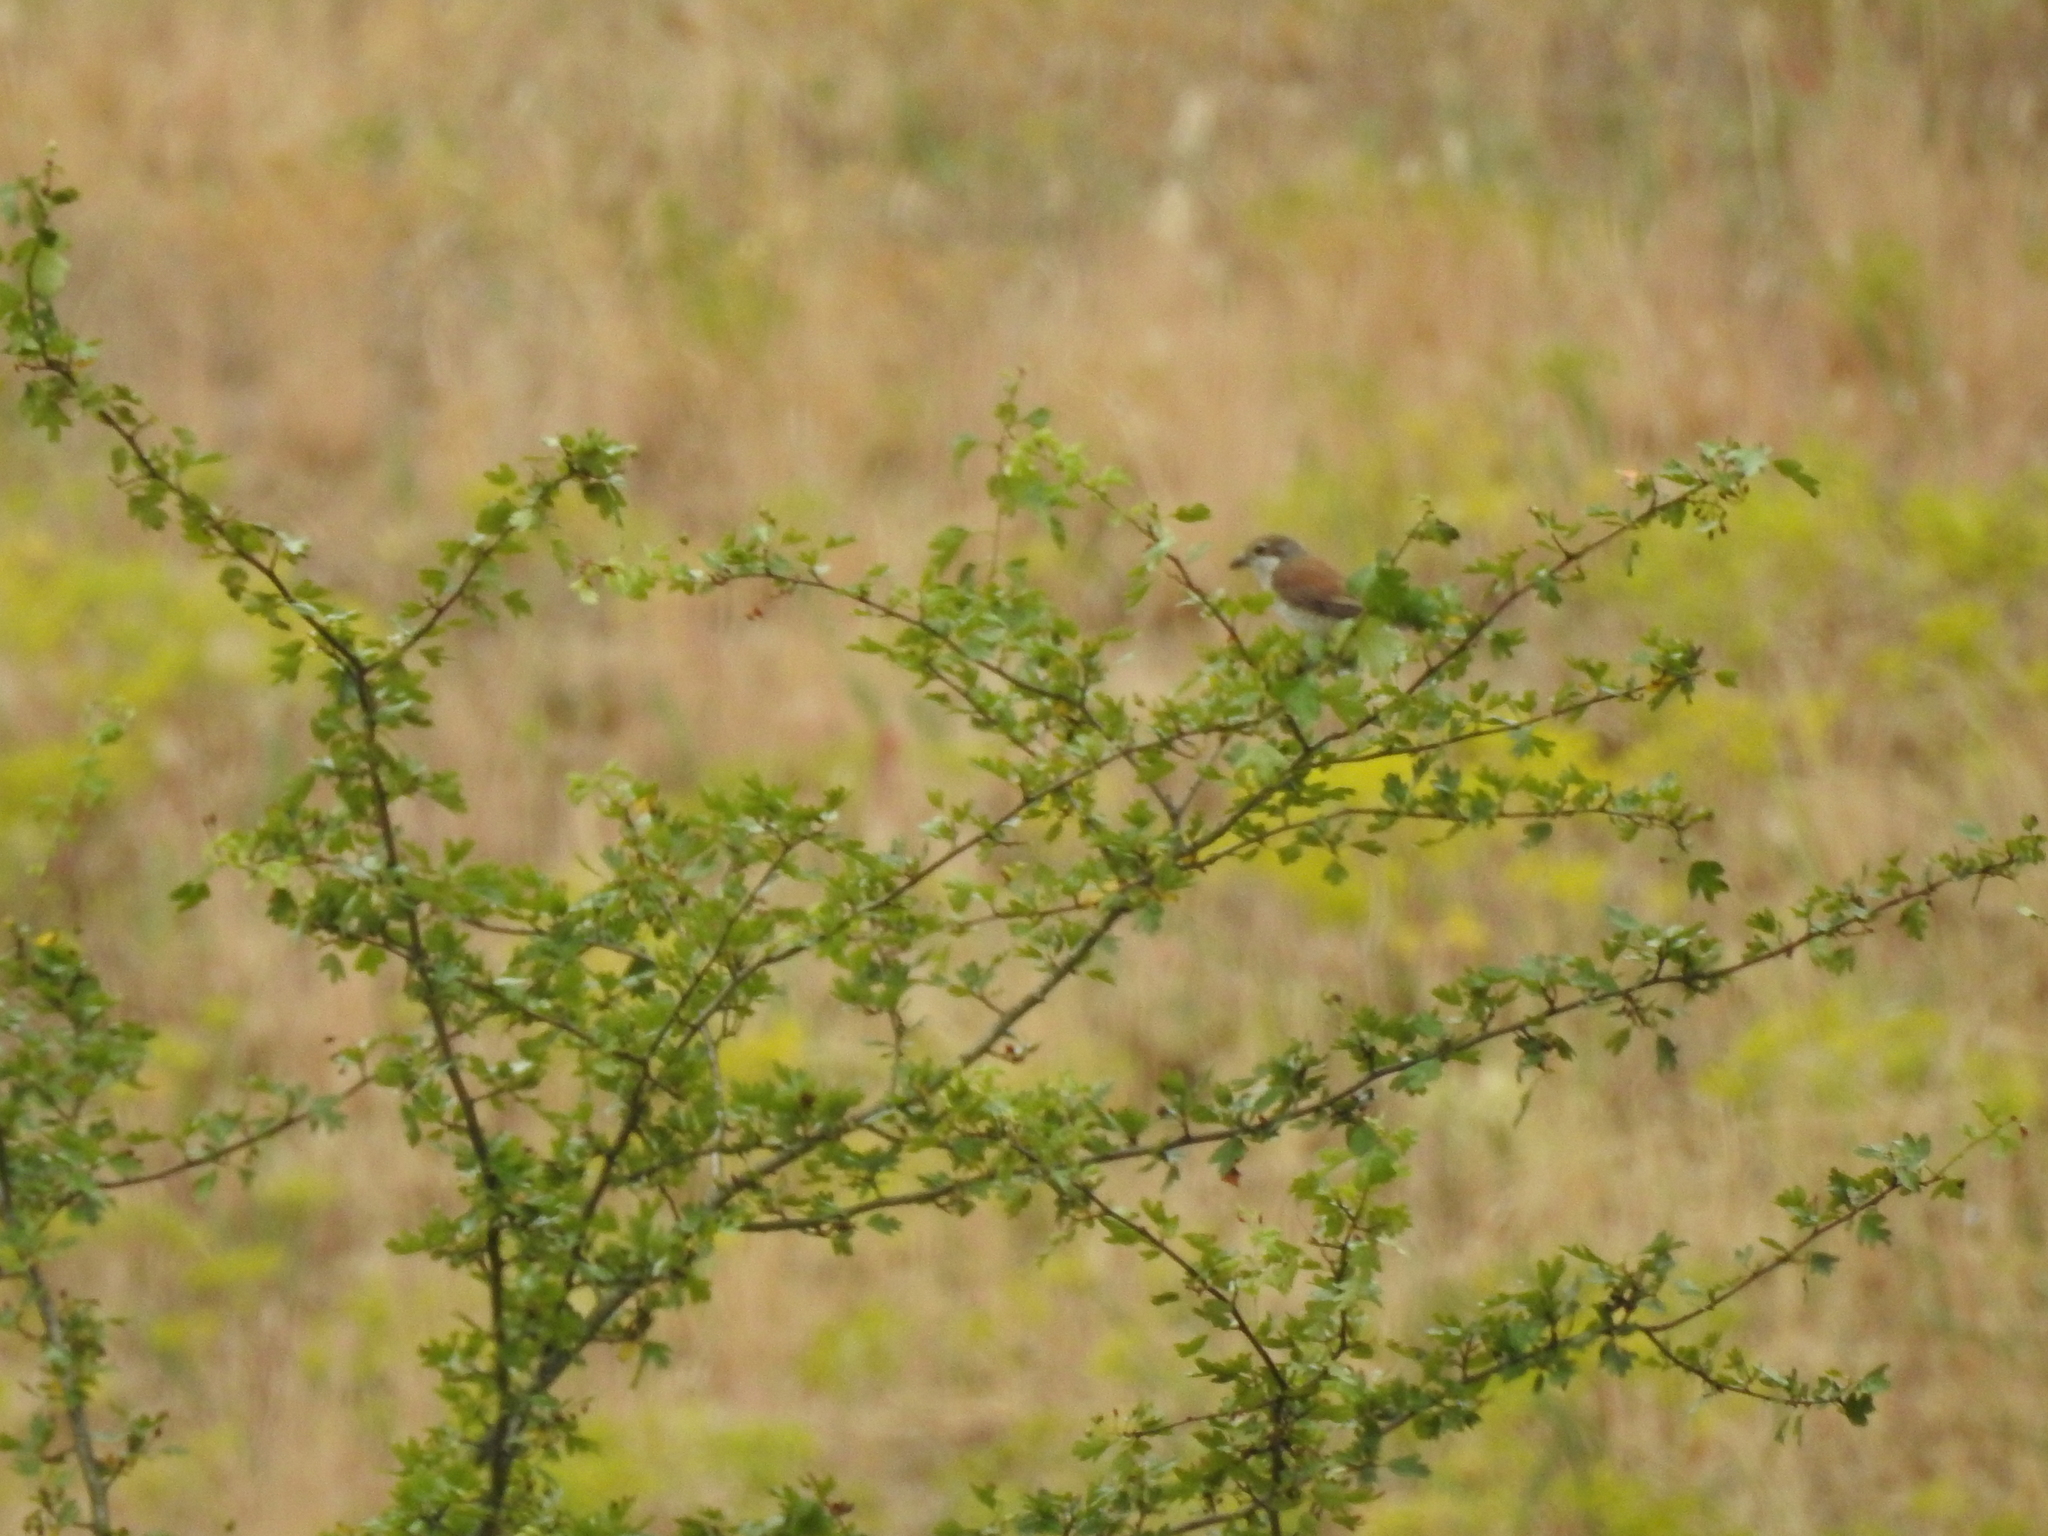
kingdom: Animalia
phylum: Chordata
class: Aves
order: Passeriformes
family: Laniidae
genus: Lanius
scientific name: Lanius collurio
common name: Red-backed shrike
